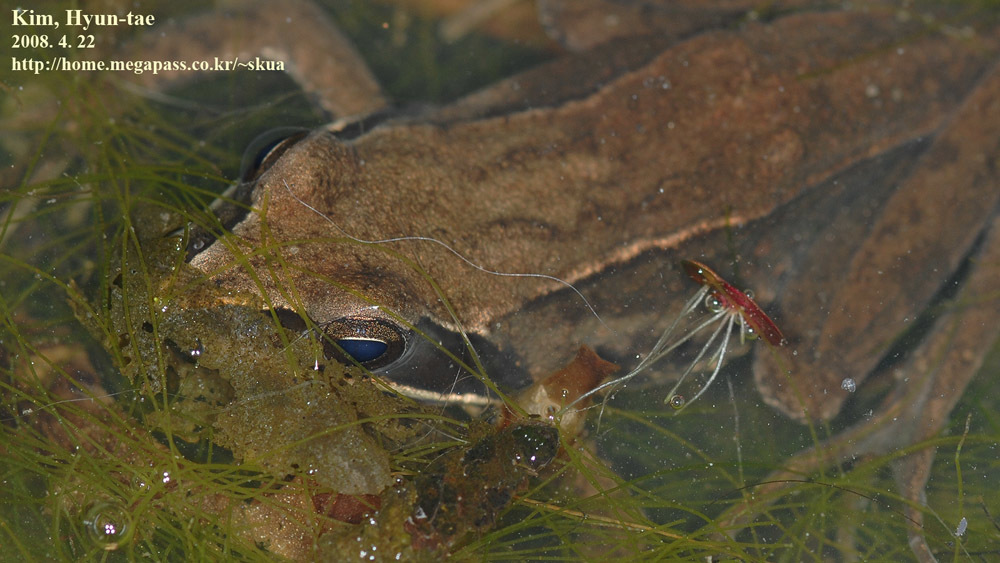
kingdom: Animalia
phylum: Chordata
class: Amphibia
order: Anura
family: Ranidae
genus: Rana
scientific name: Rana coreana
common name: Korean brown frog
